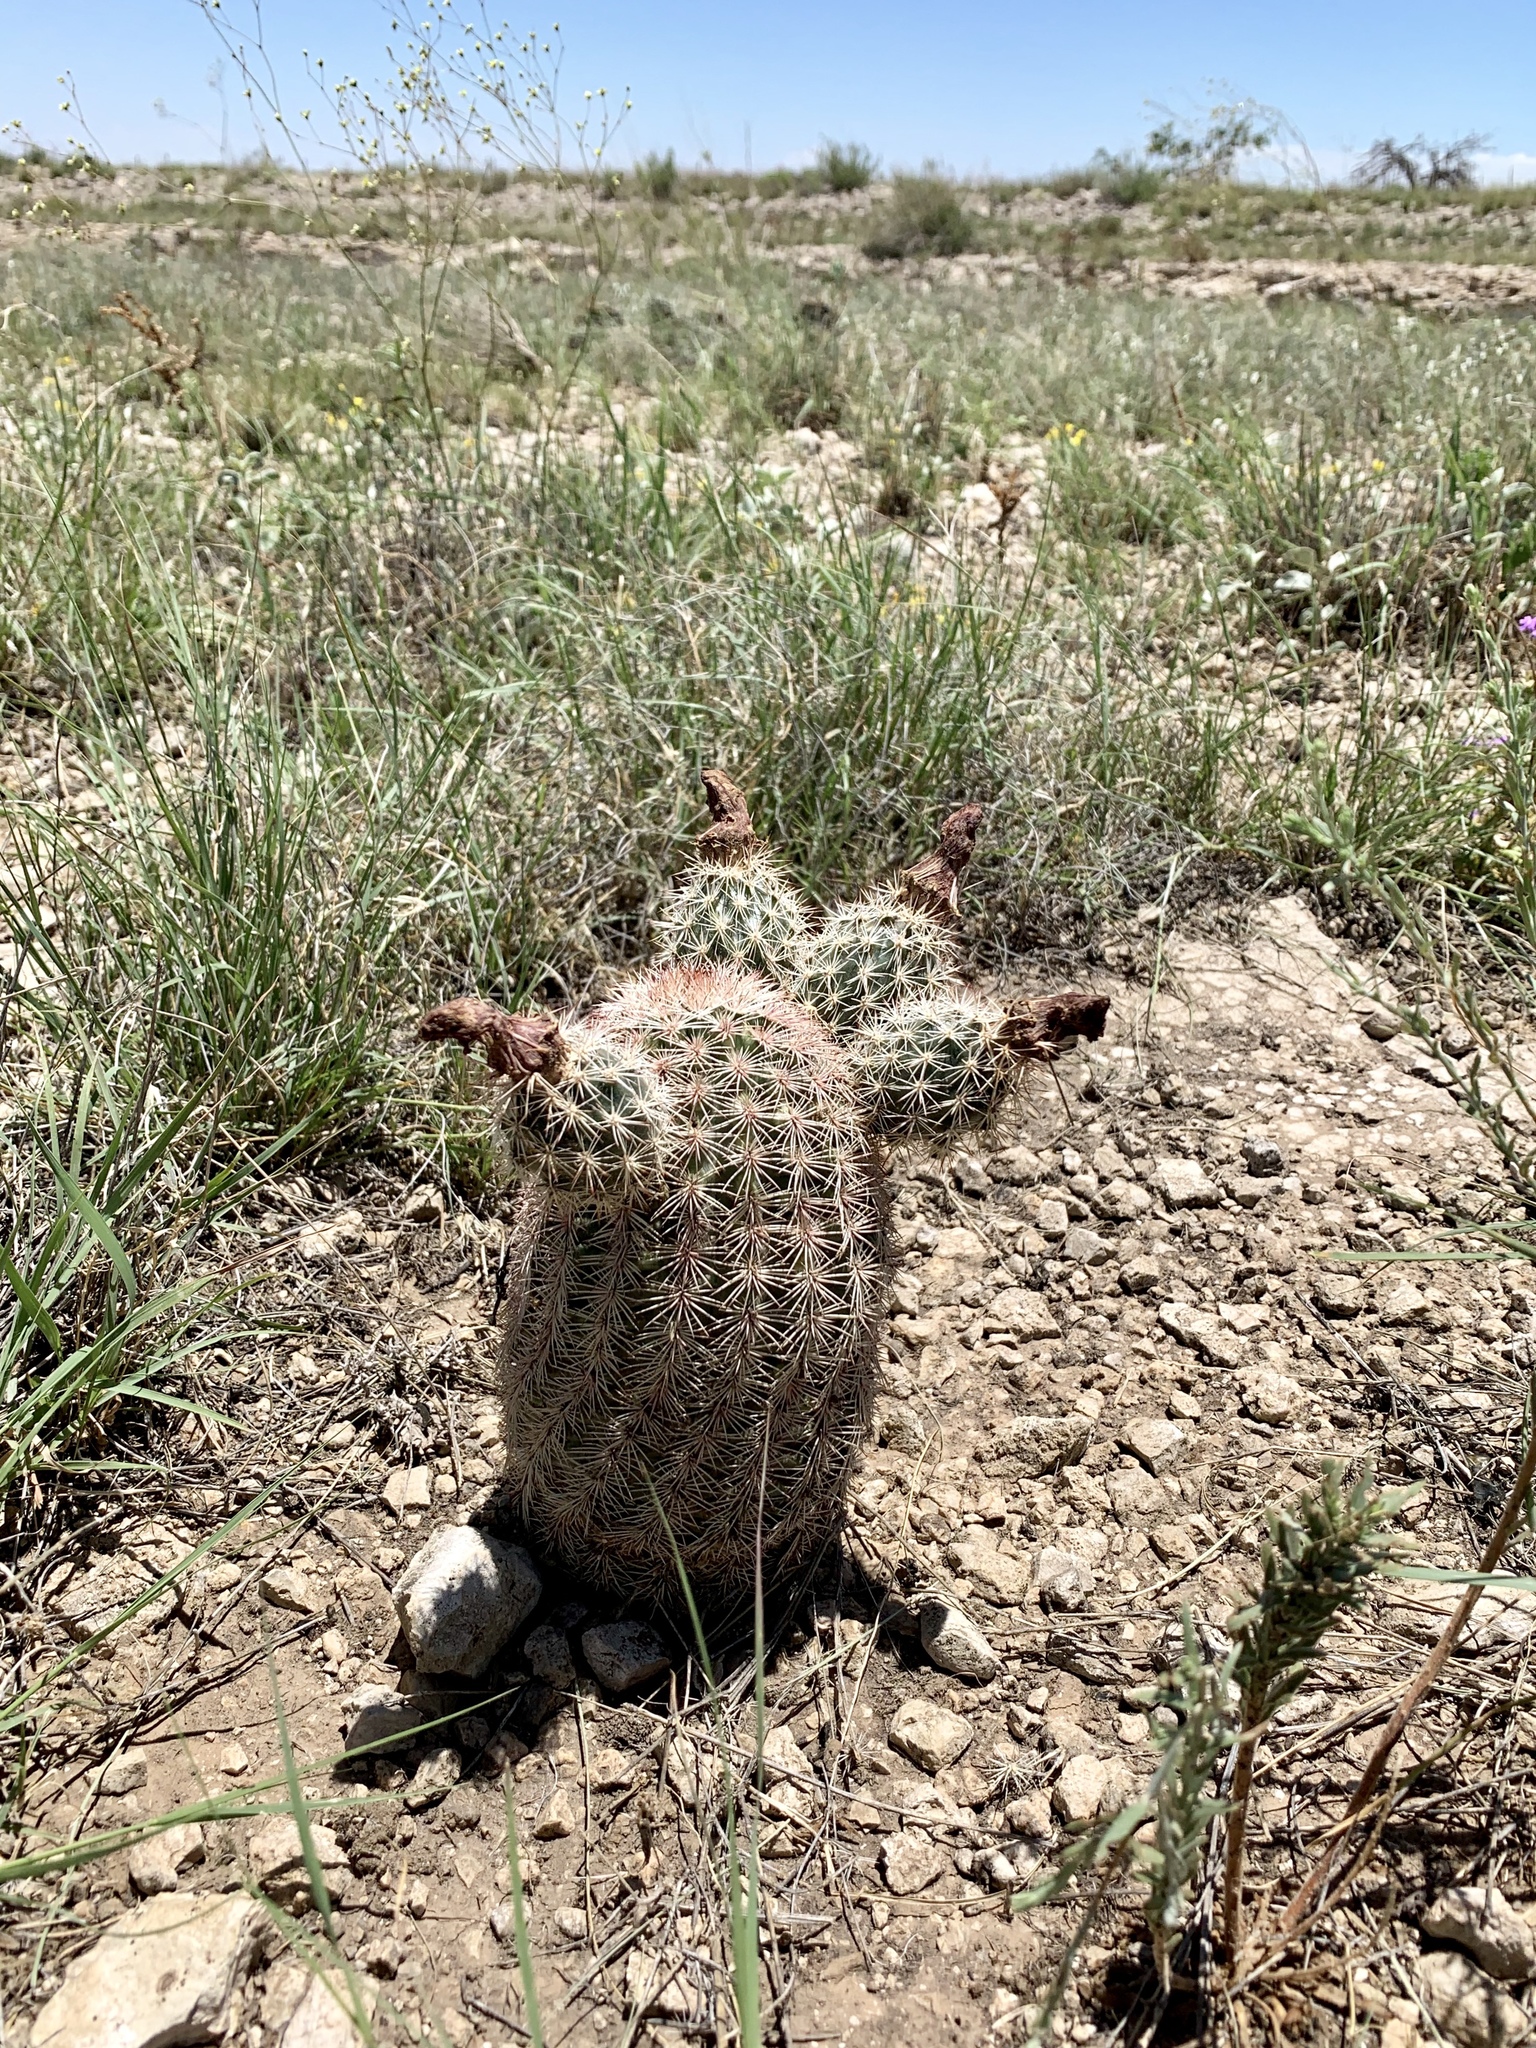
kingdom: Plantae
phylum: Tracheophyta
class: Magnoliopsida
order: Caryophyllales
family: Cactaceae
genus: Echinocereus
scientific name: Echinocereus dasyacanthus
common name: Spiny hedgehog cactus
